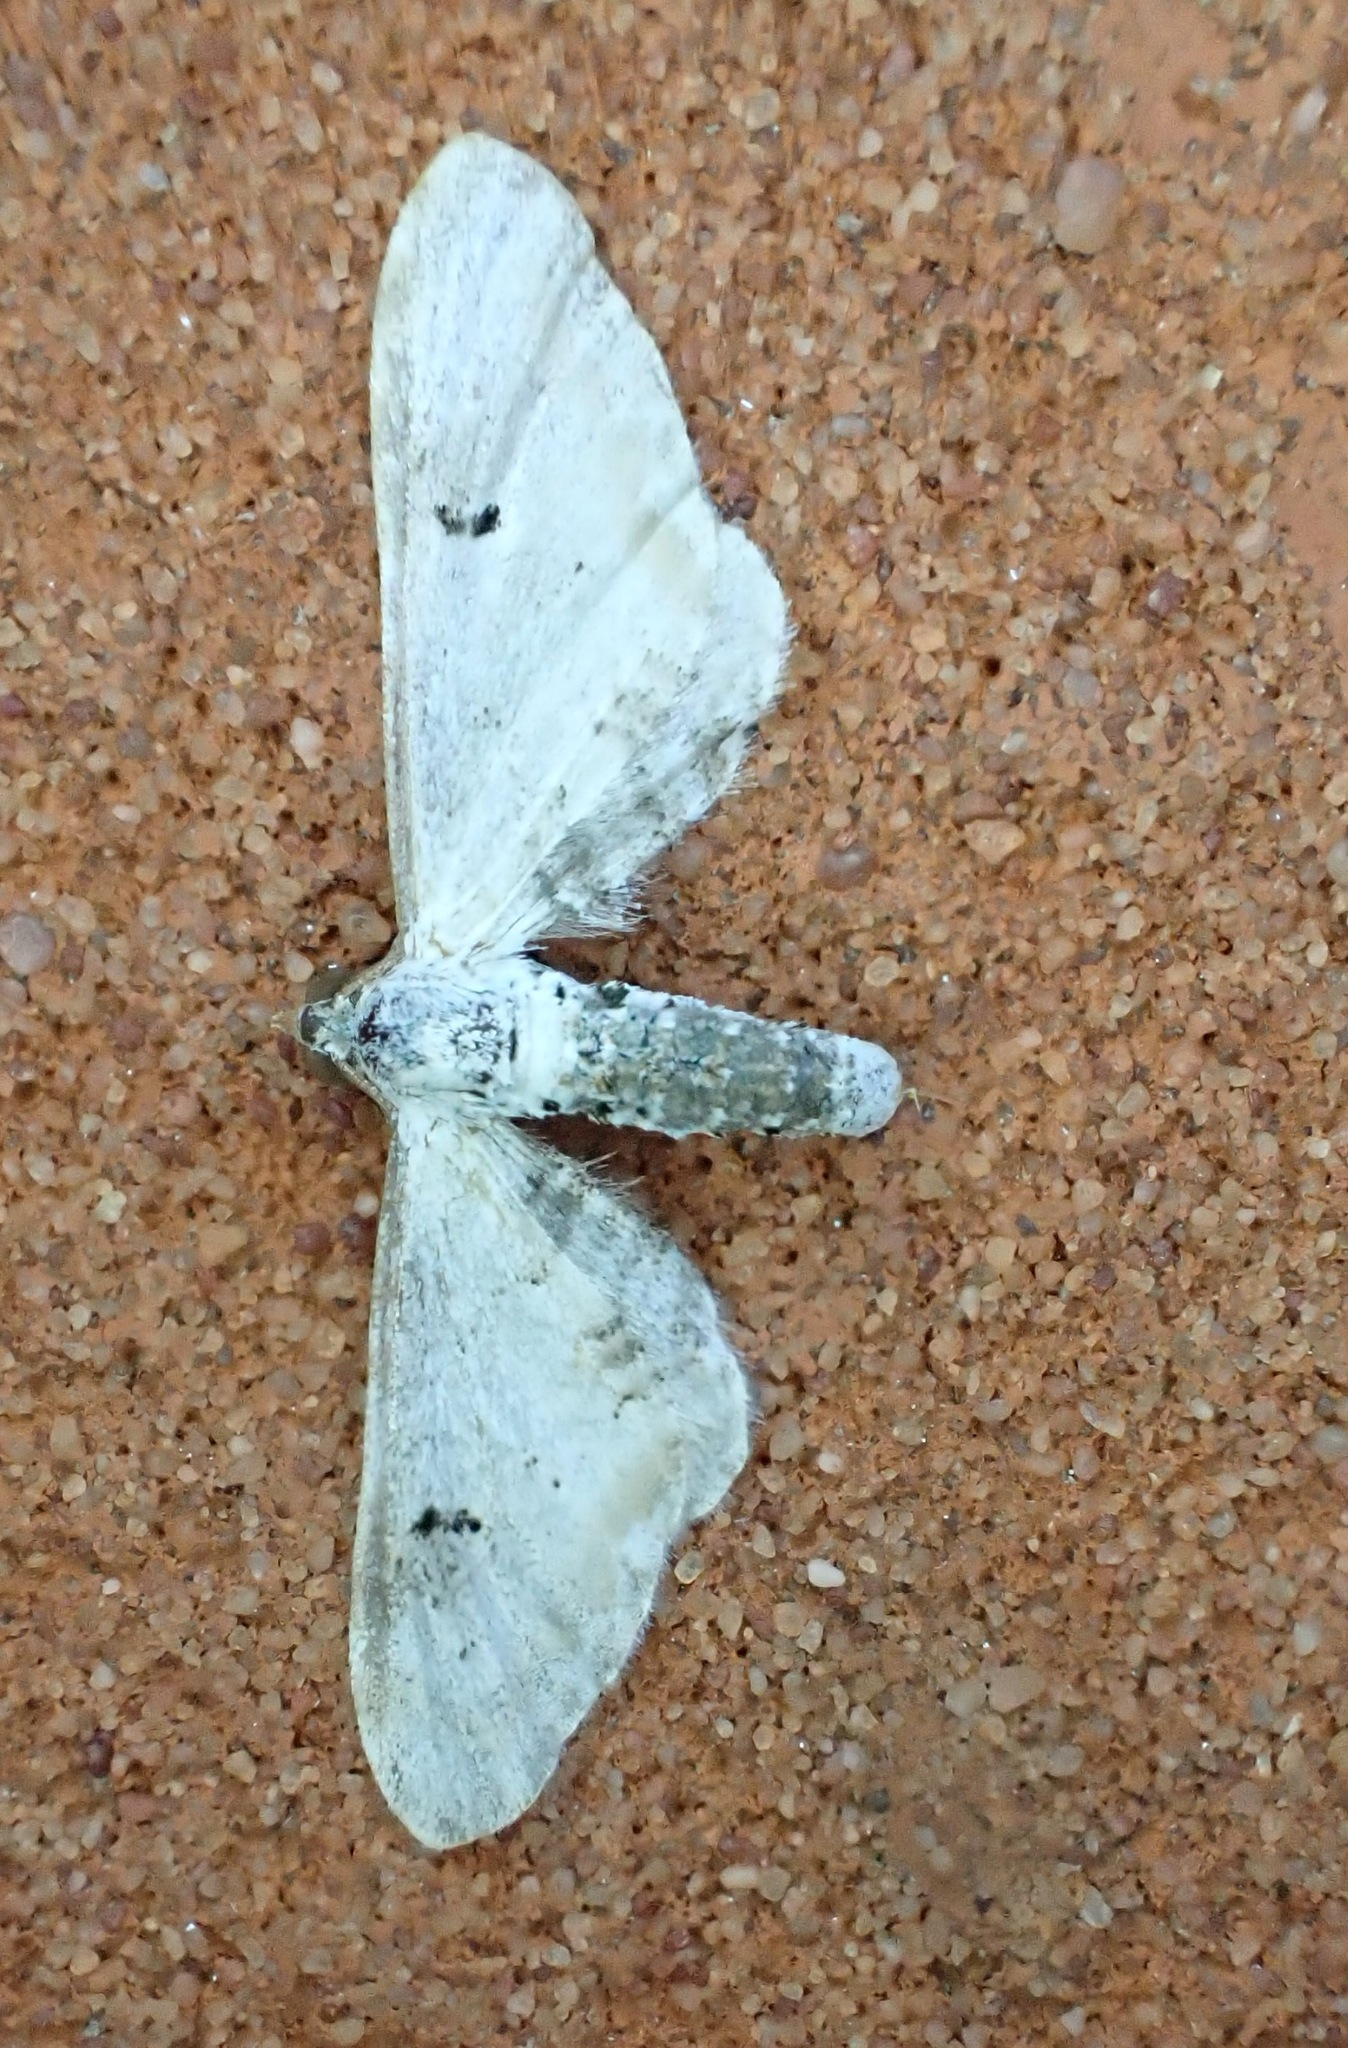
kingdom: Animalia
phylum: Arthropoda
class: Insecta
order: Lepidoptera
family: Geometridae
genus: Eupithecia
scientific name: Eupithecia centaureata
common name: Lime-speck pug
